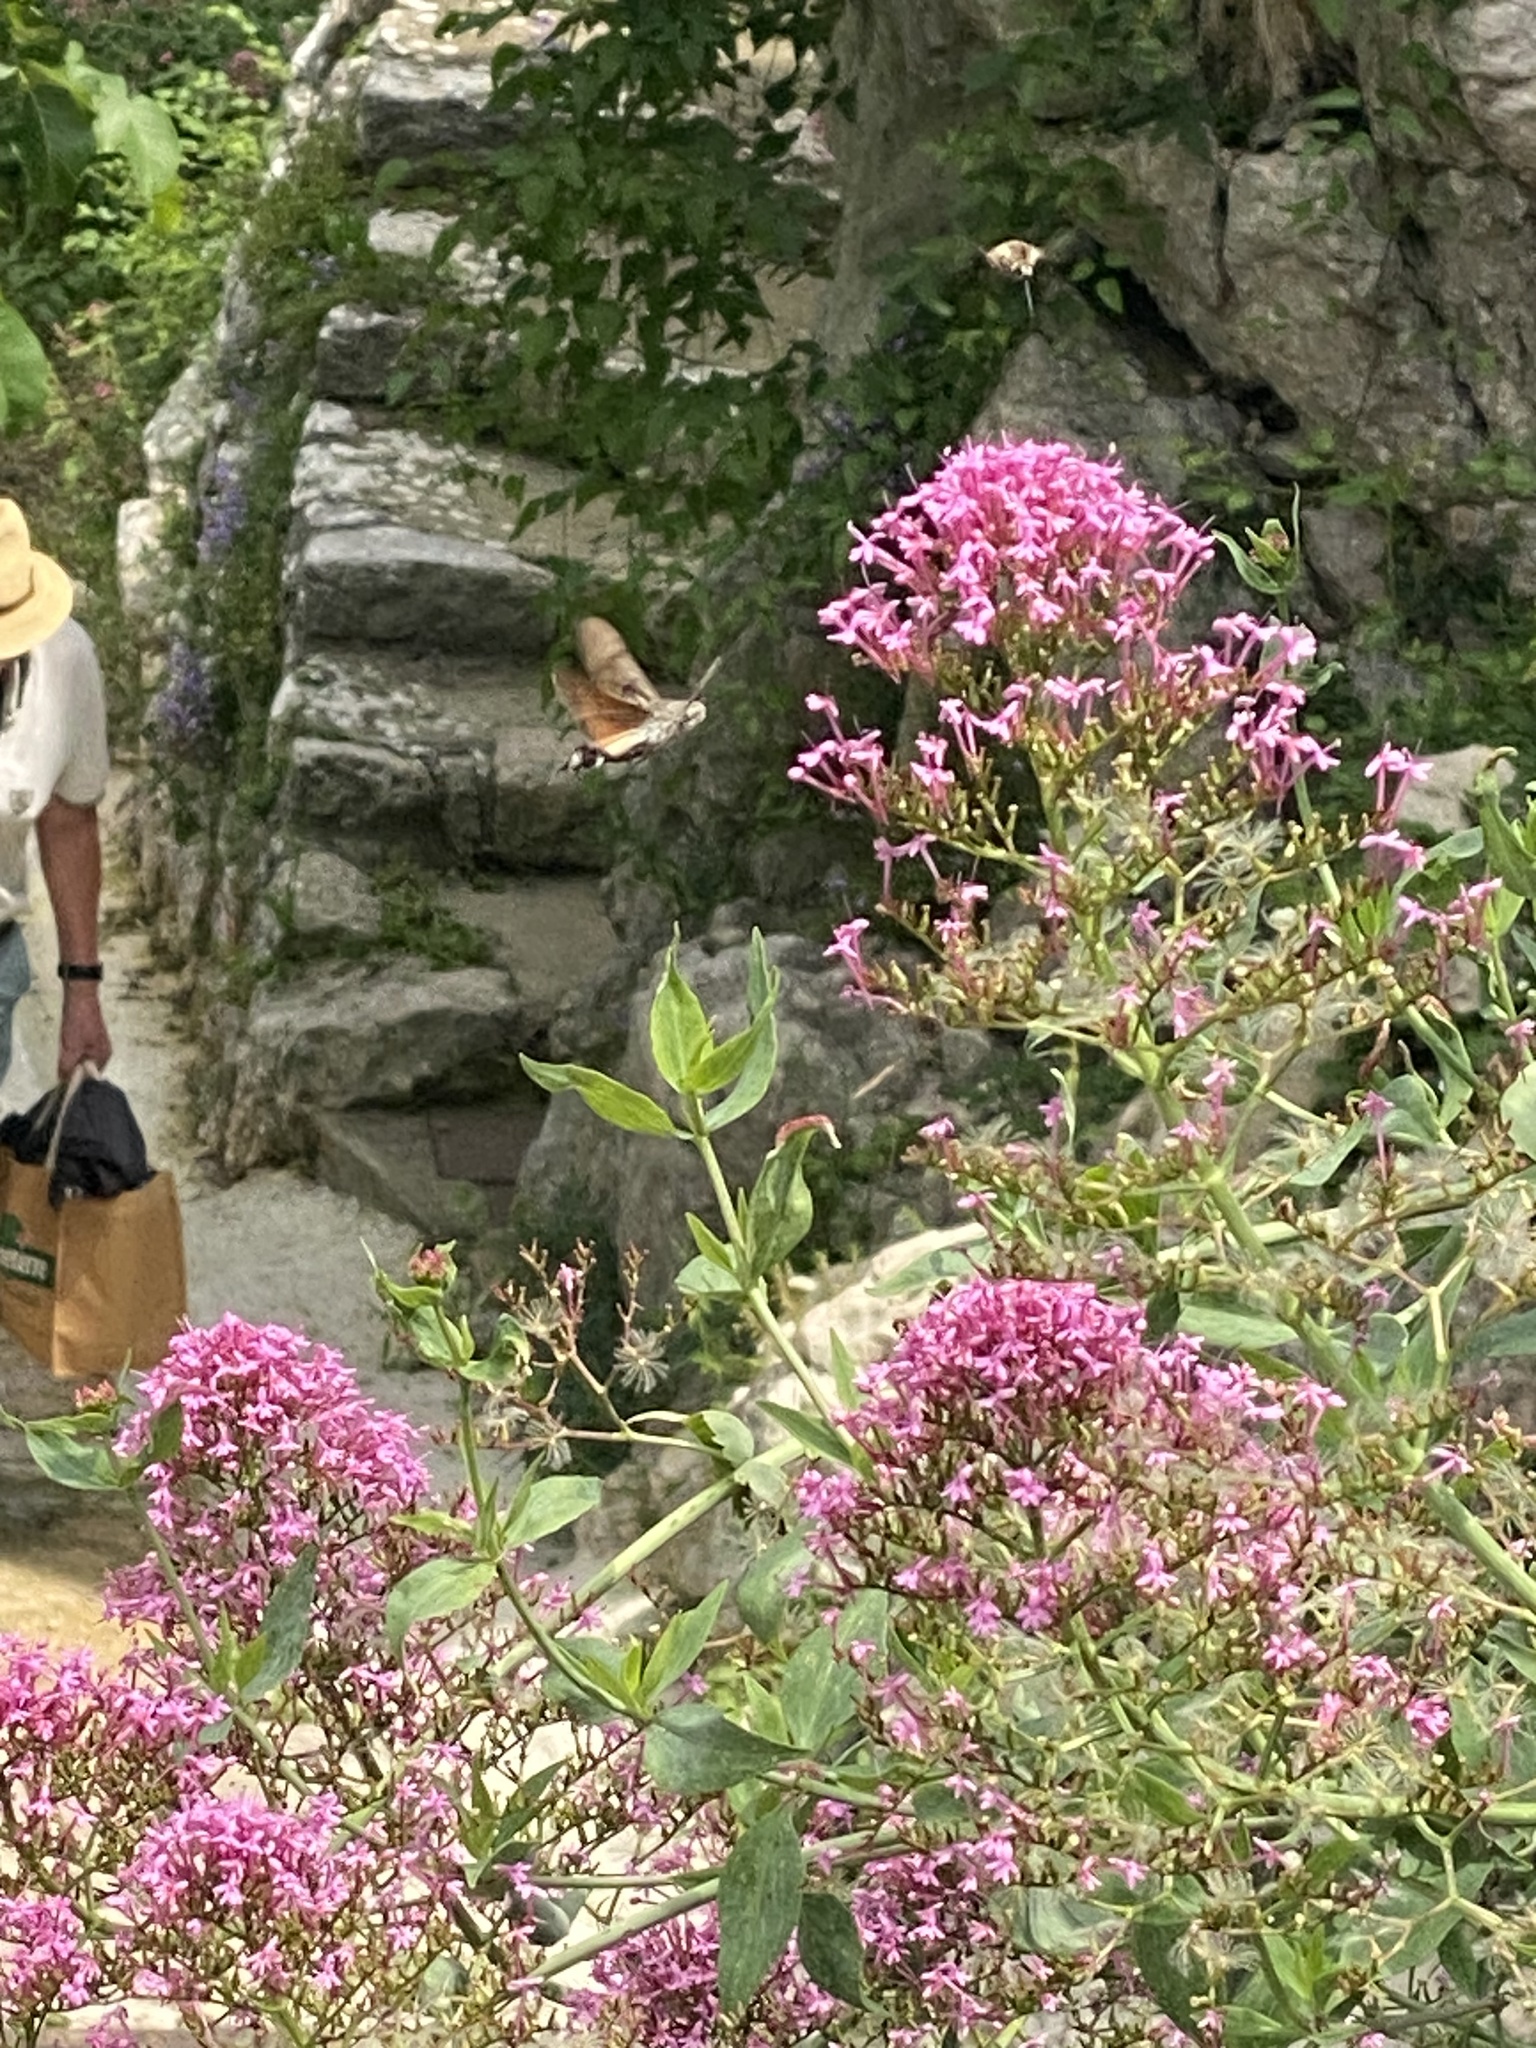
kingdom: Animalia
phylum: Arthropoda
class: Insecta
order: Lepidoptera
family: Sphingidae
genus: Macroglossum
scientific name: Macroglossum stellatarum
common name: Humming-bird hawk-moth
